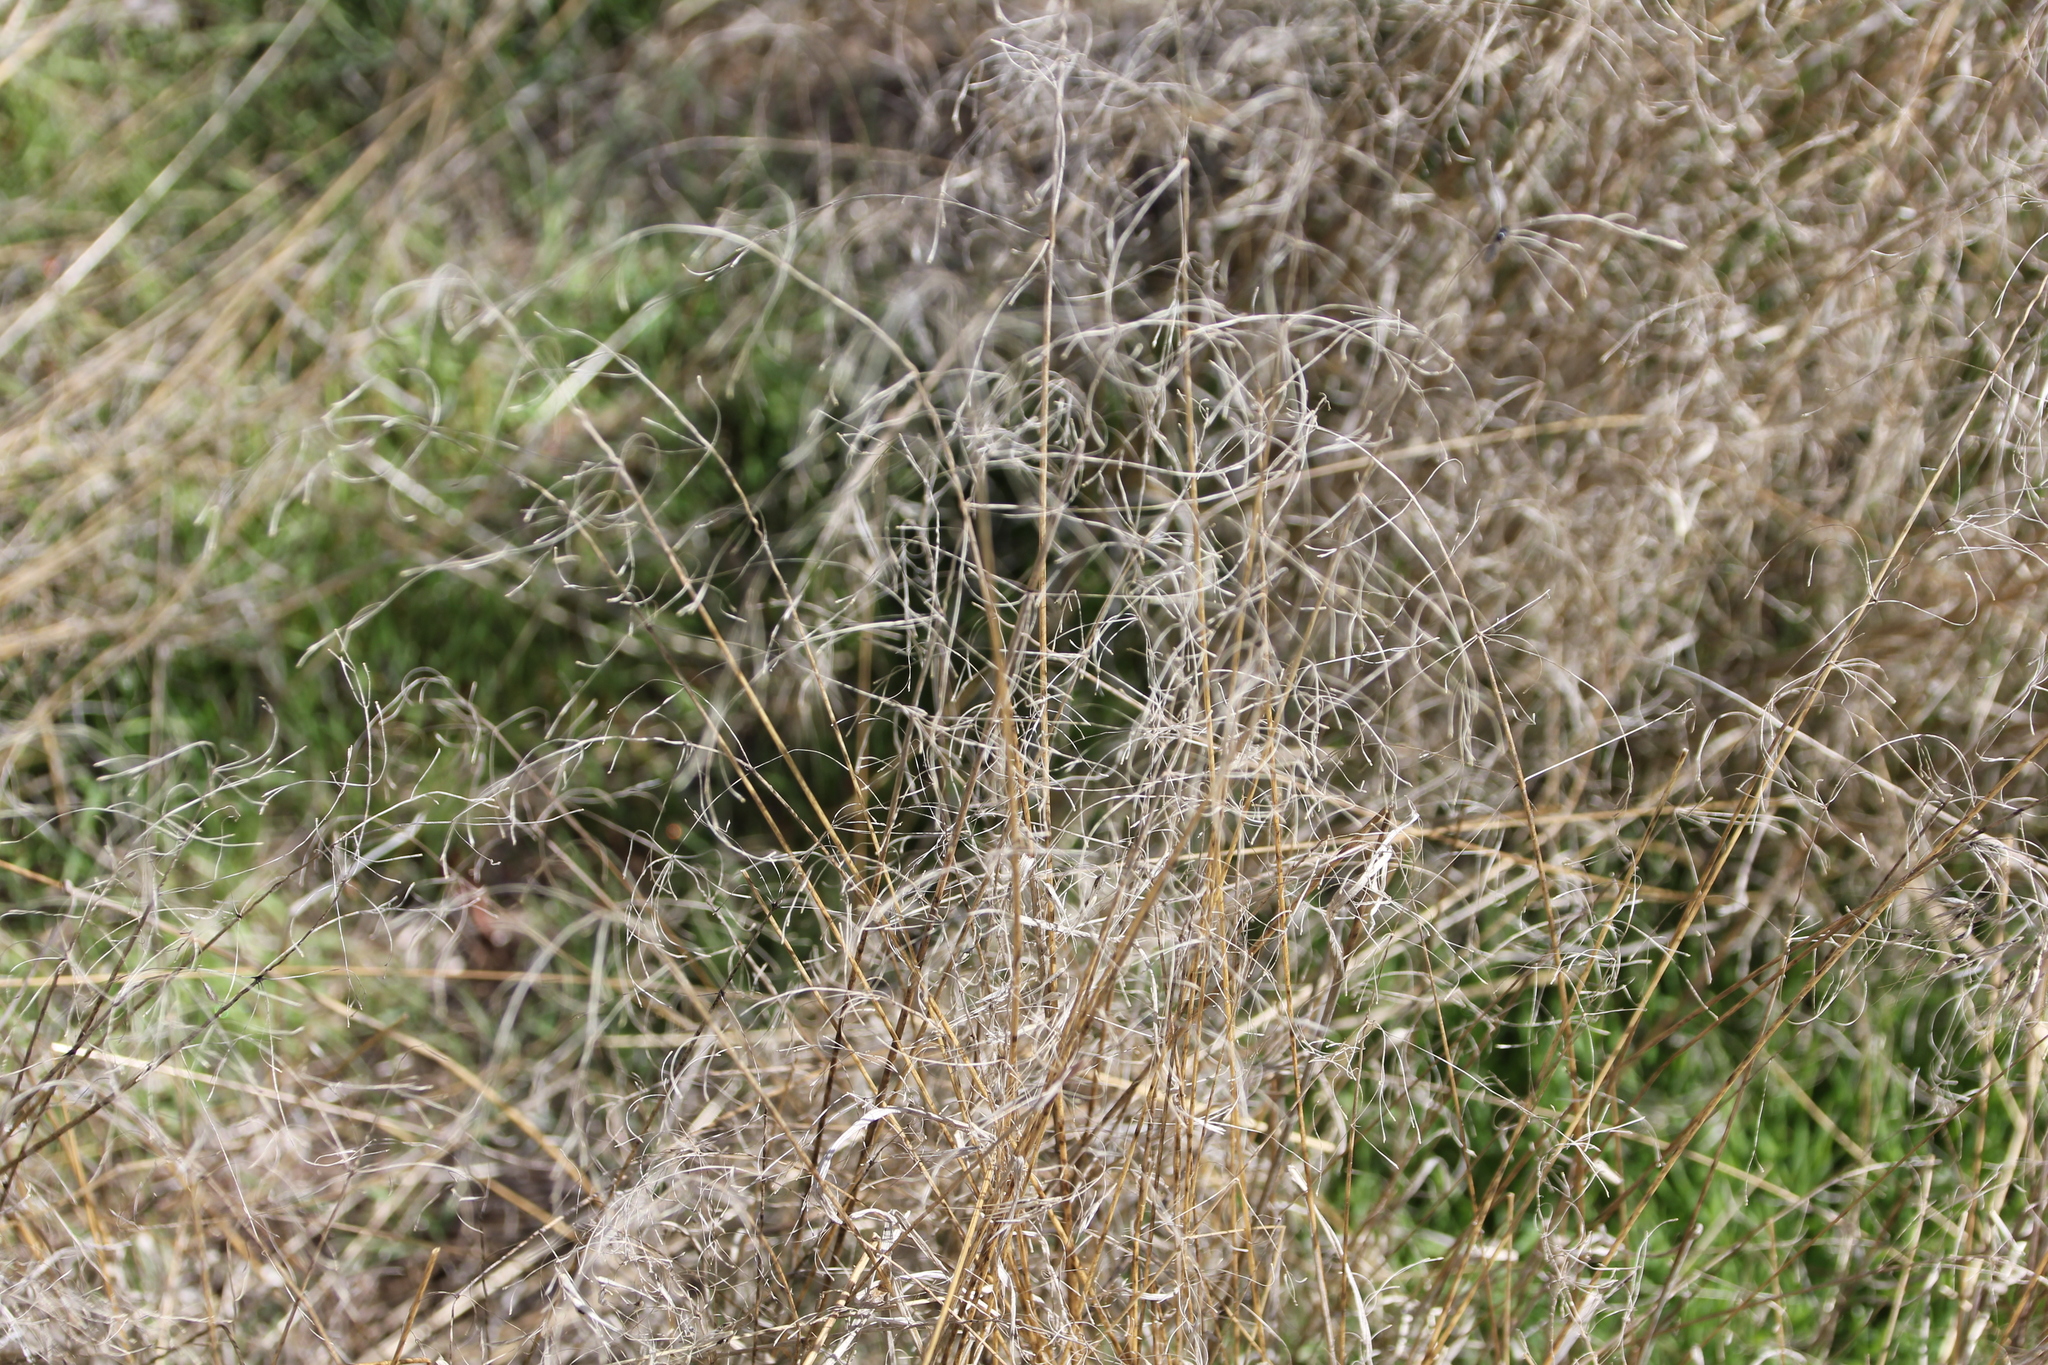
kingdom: Plantae
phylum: Tracheophyta
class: Liliopsida
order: Poales
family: Poaceae
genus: Bromus
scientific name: Bromus tectorum
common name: Cheatgrass
